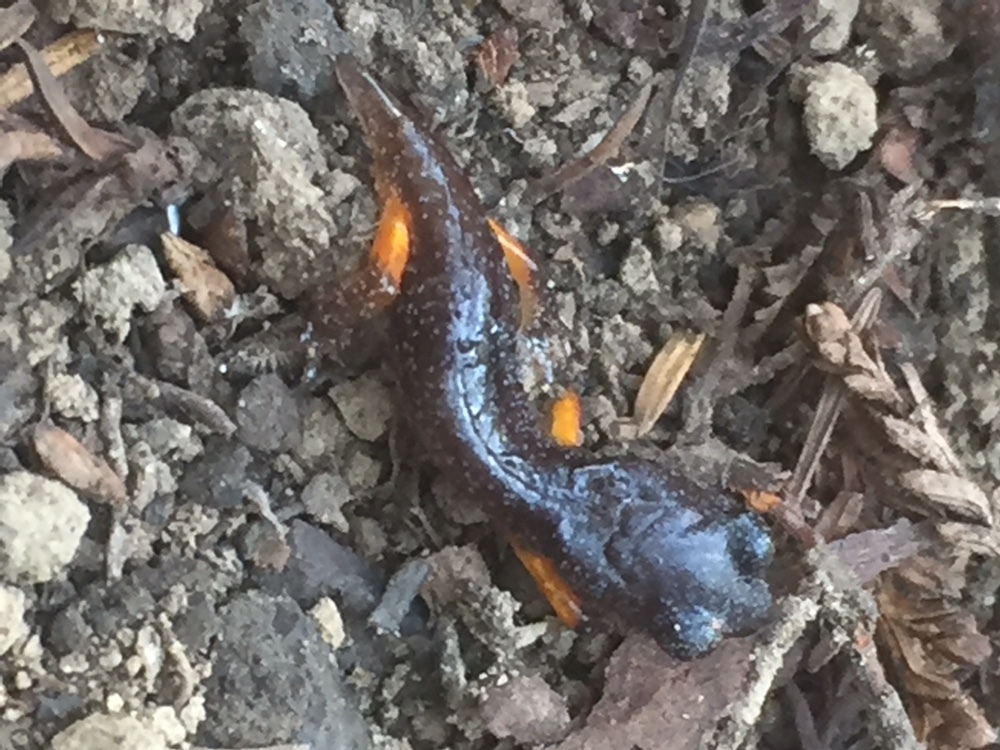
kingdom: Animalia
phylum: Chordata
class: Amphibia
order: Caudata
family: Plethodontidae
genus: Ensatina
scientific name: Ensatina eschscholtzii
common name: Ensatina
